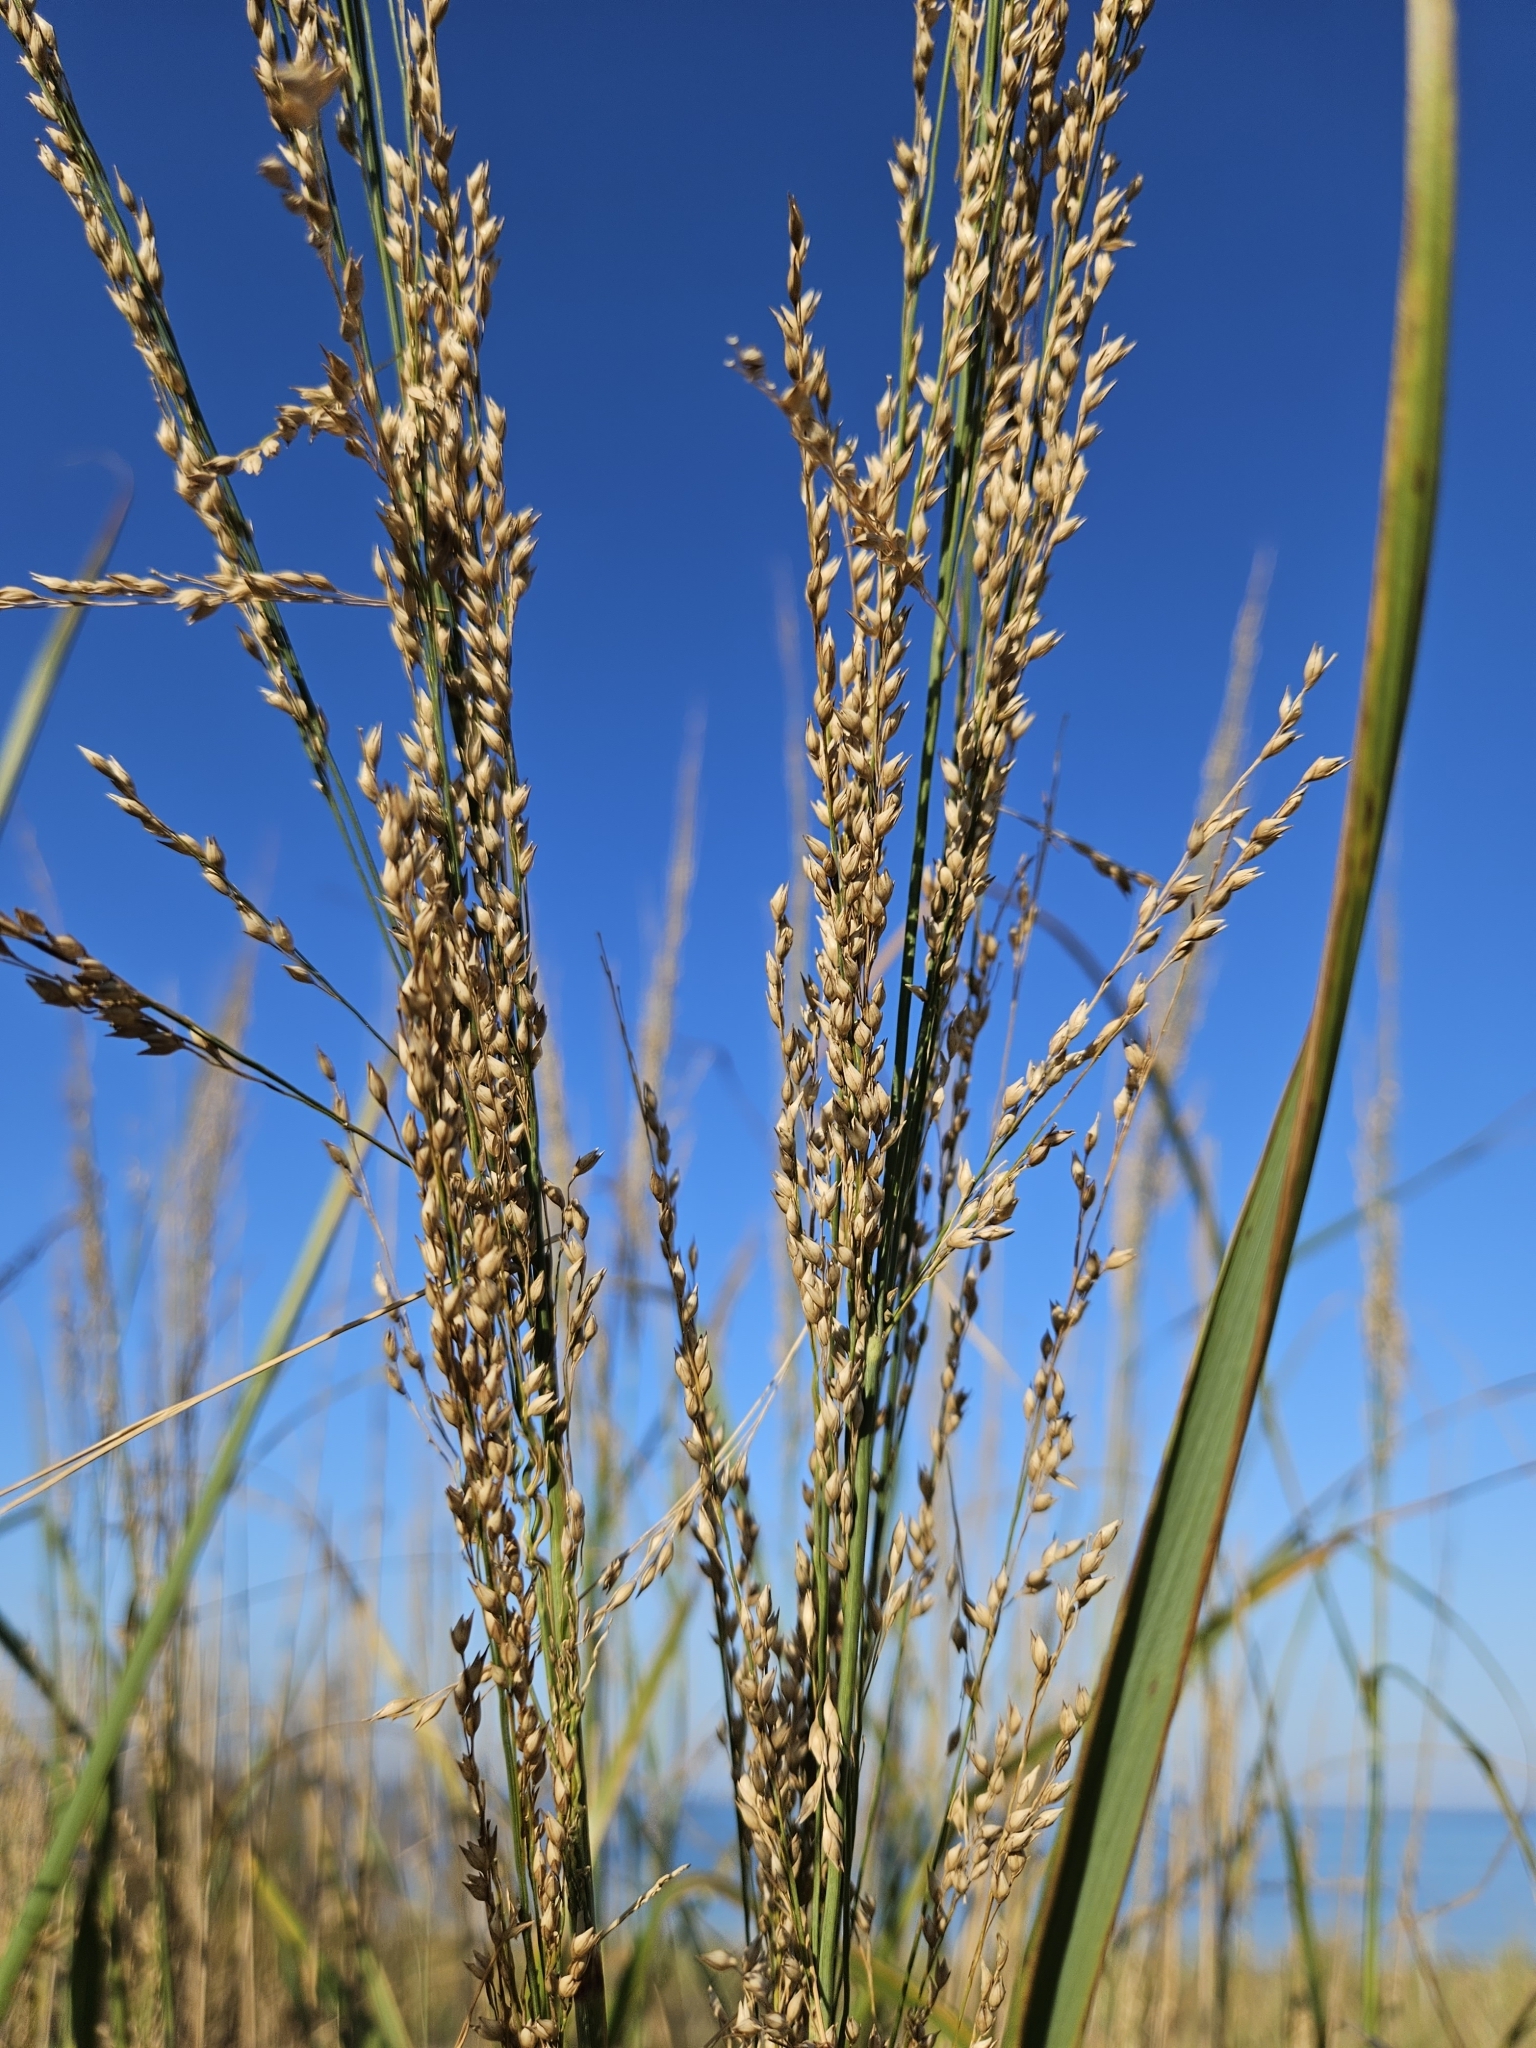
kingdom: Plantae
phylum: Tracheophyta
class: Liliopsida
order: Poales
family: Poaceae
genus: Panicum
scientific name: Panicum amarum
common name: Bitter panicum
